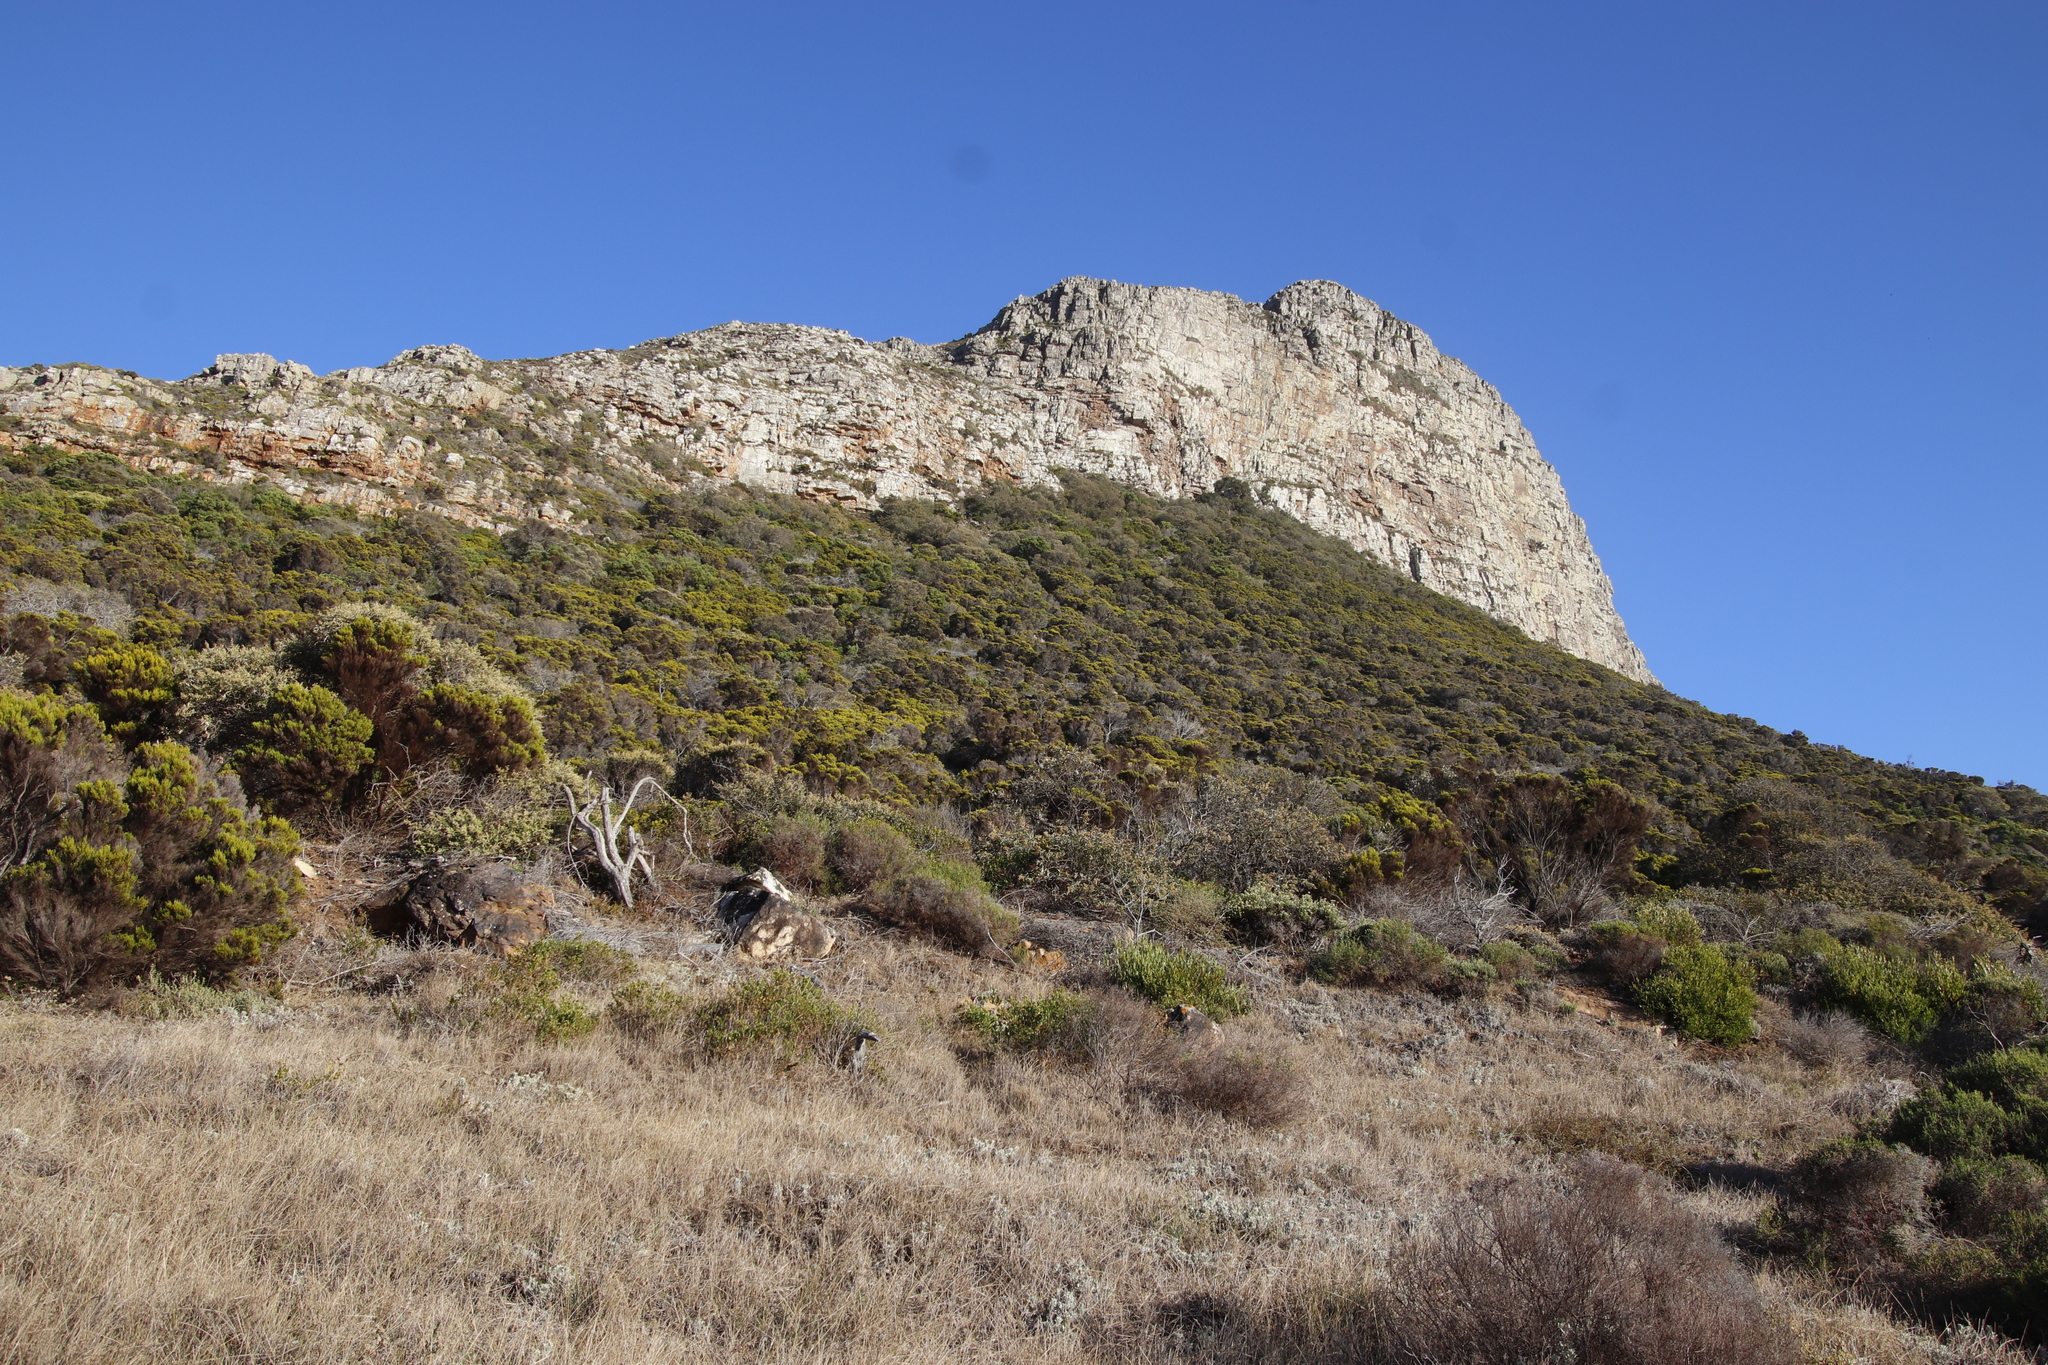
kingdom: Plantae
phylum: Tracheophyta
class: Magnoliopsida
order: Ericales
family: Ericaceae
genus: Erica
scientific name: Erica tristis
